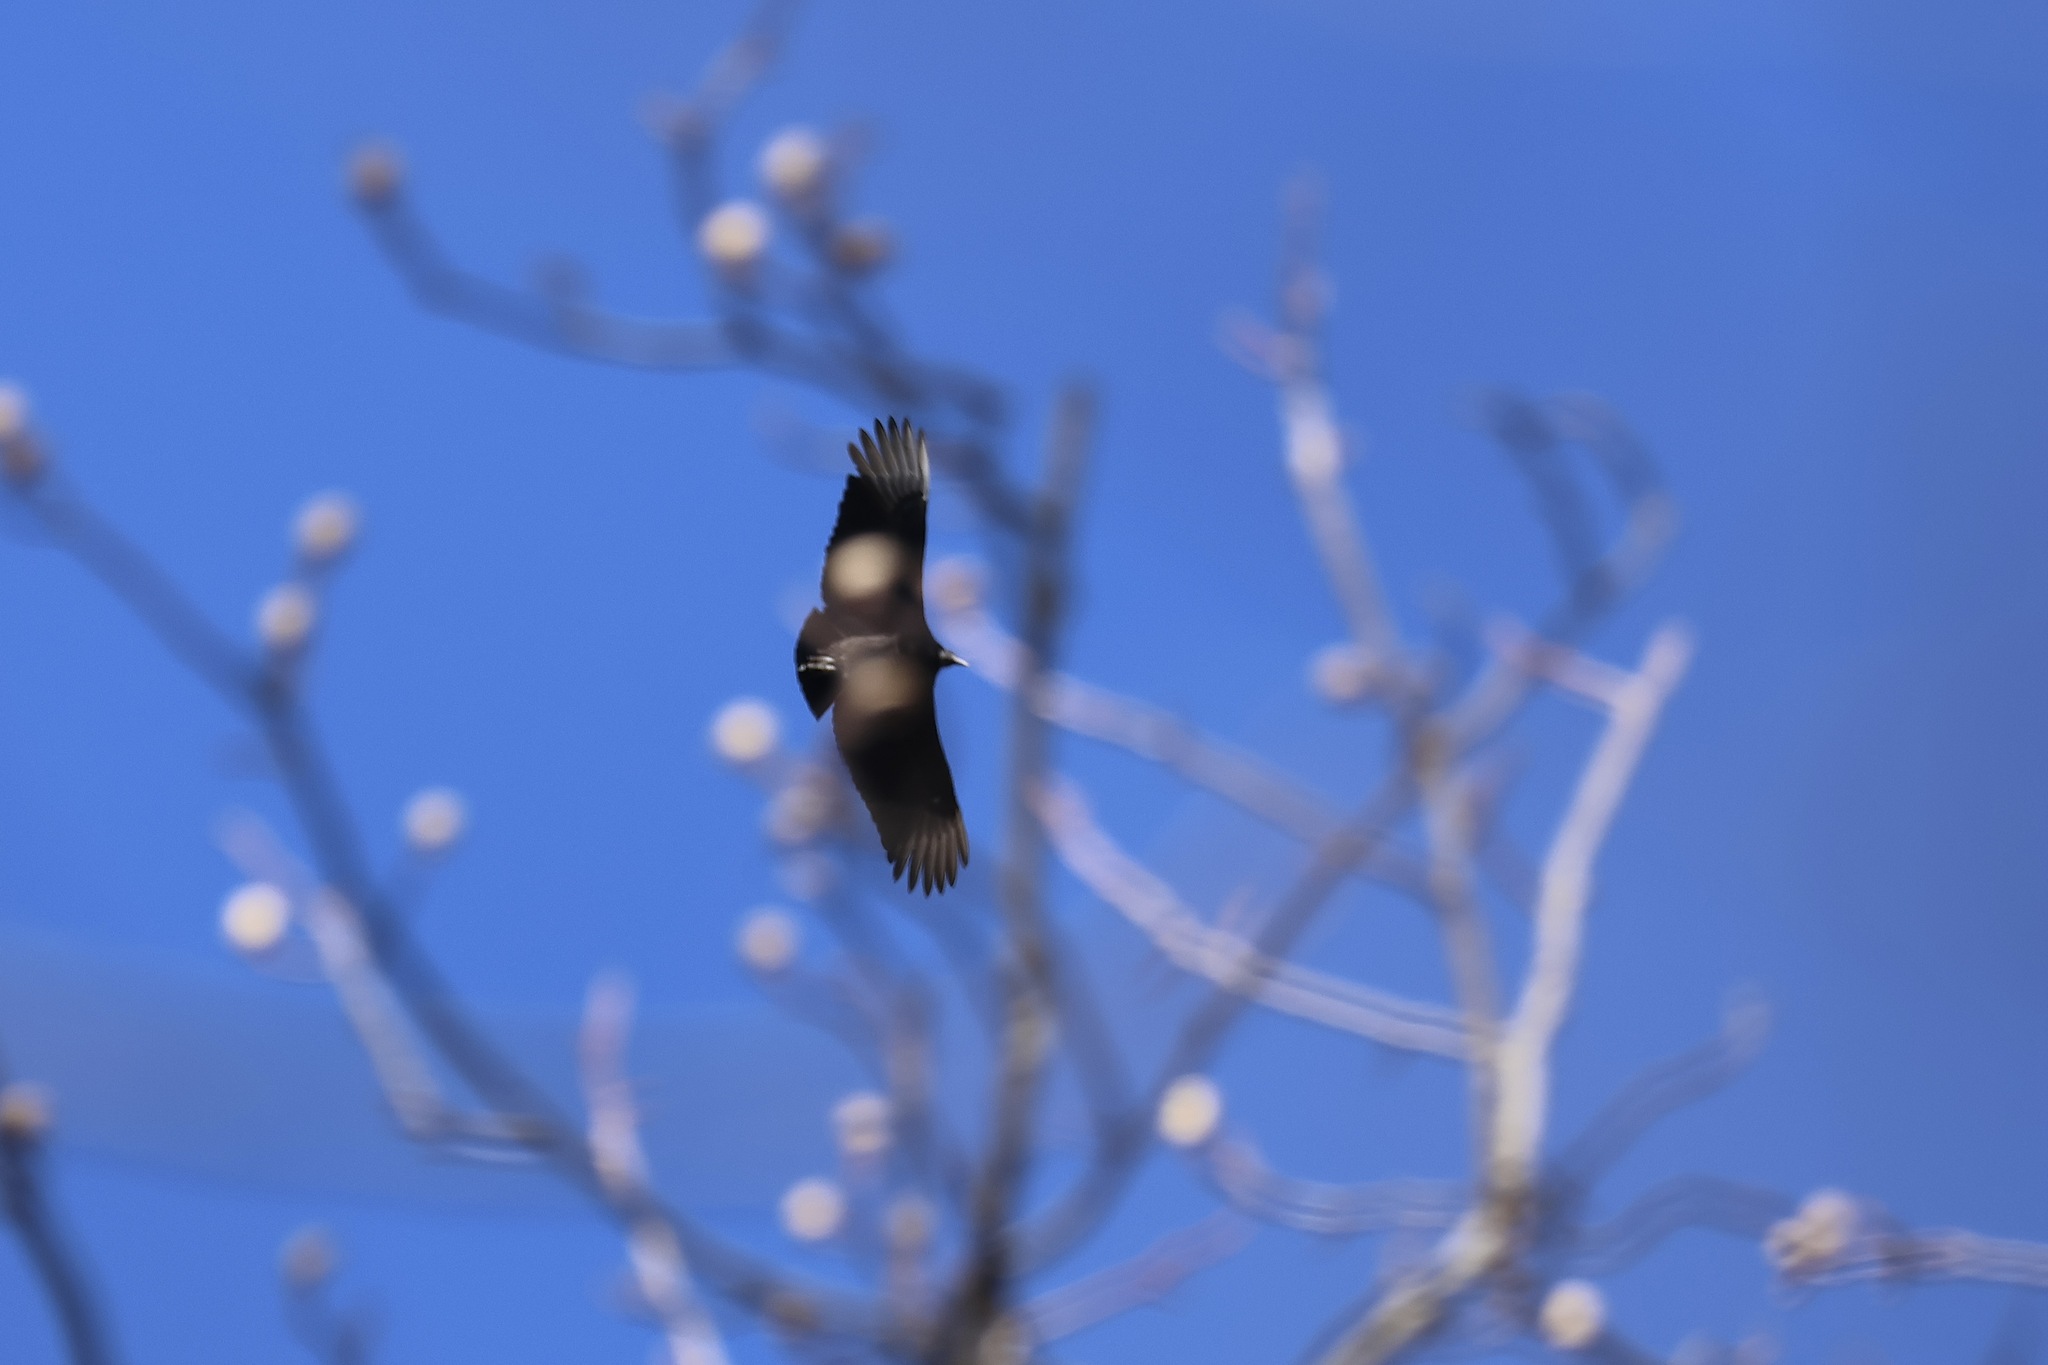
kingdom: Animalia
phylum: Chordata
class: Aves
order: Accipitriformes
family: Cathartidae
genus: Coragyps
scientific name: Coragyps atratus
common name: Black vulture
